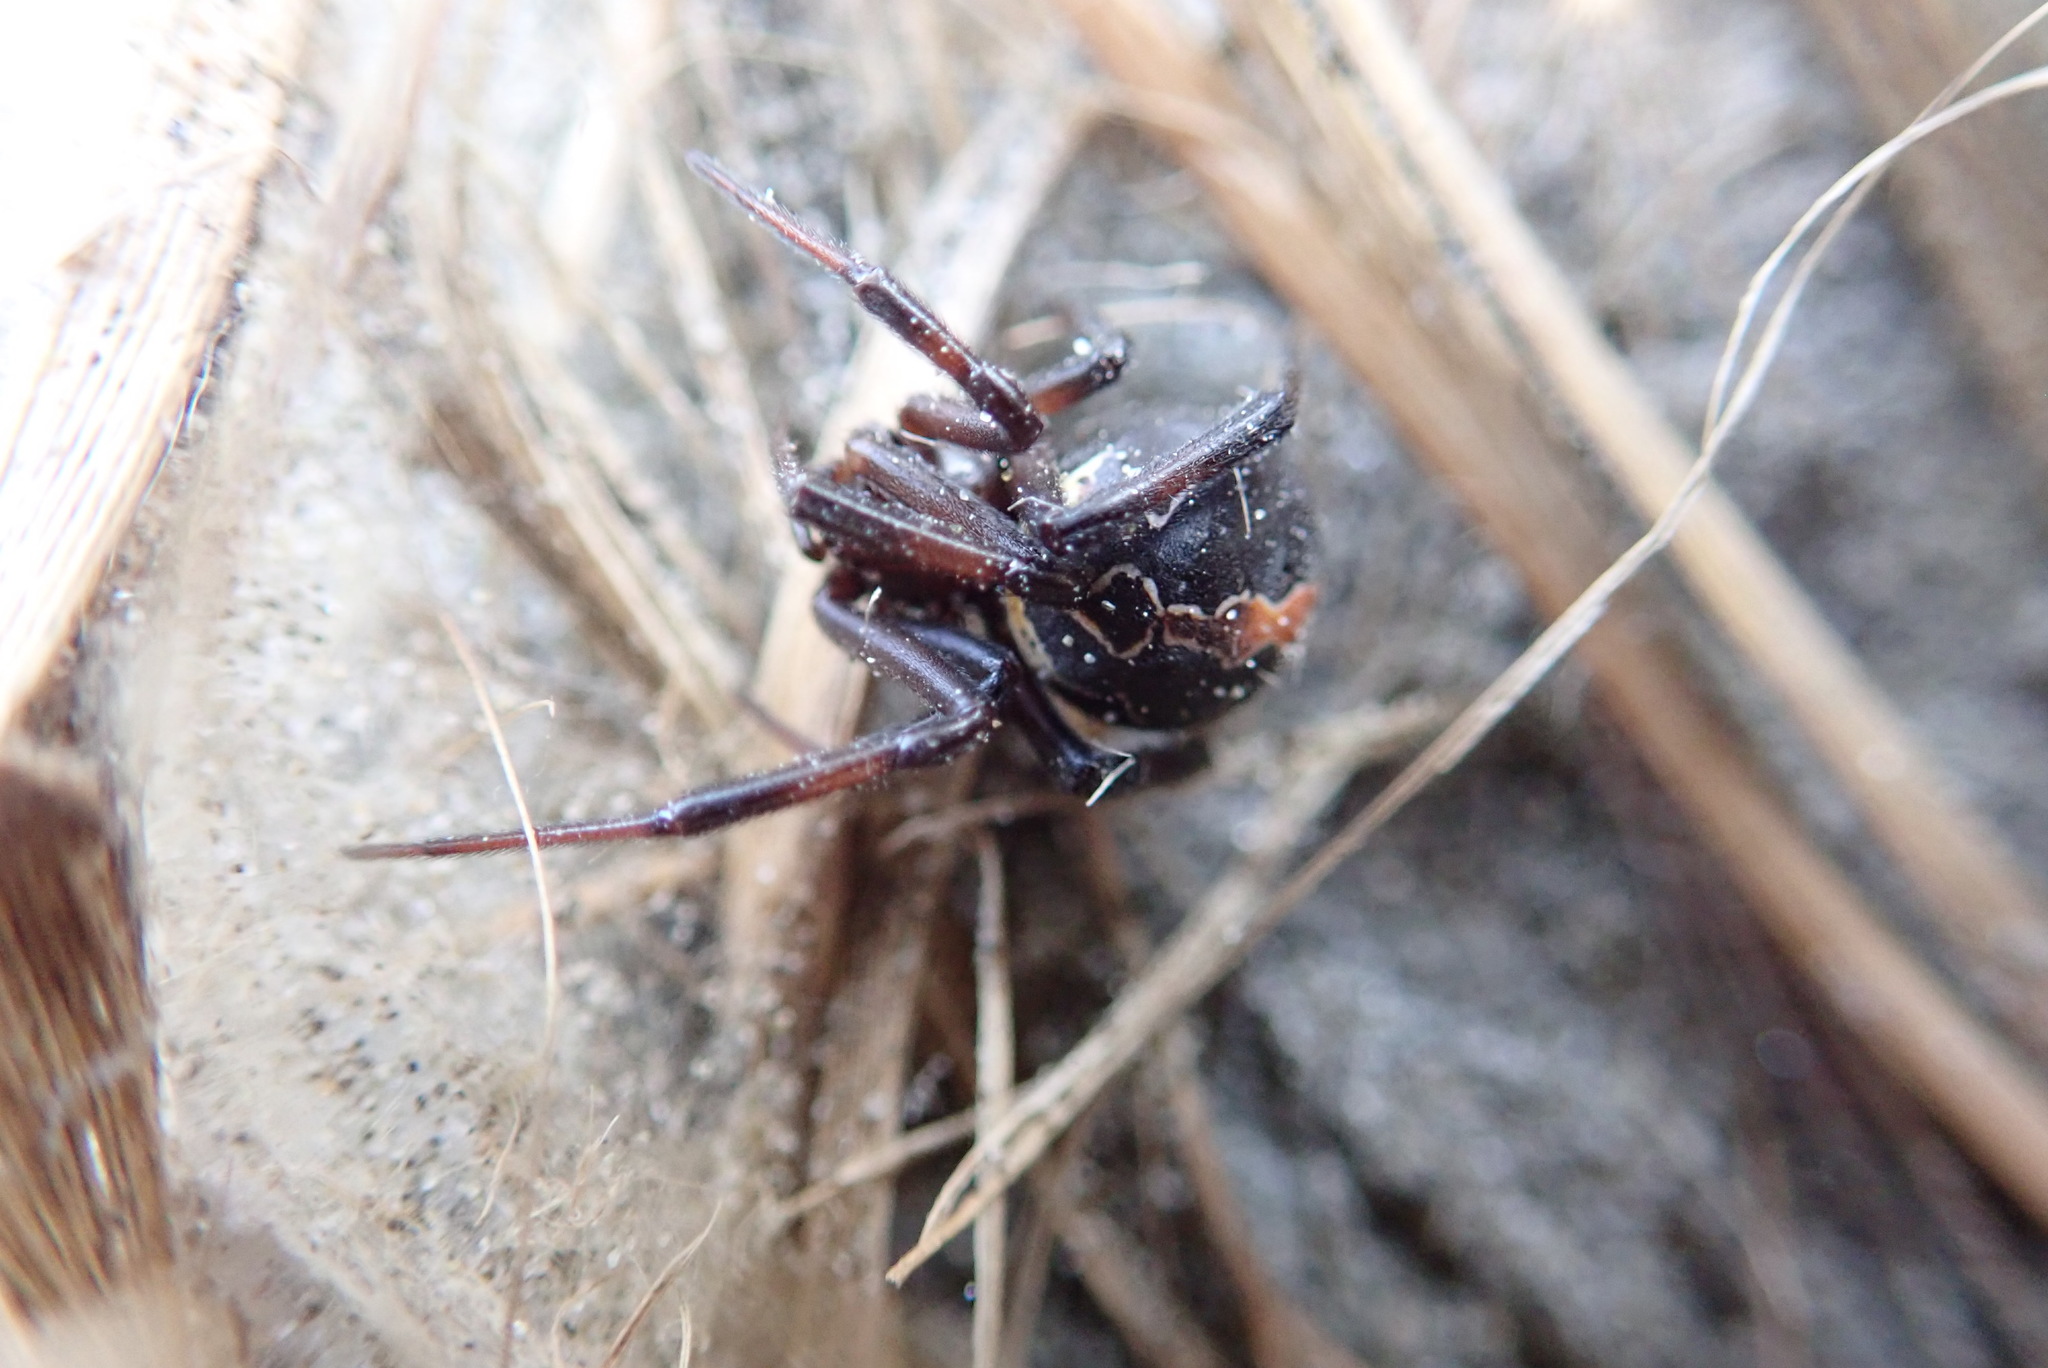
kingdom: Animalia
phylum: Arthropoda
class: Arachnida
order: Araneae
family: Theridiidae
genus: Latrodectus
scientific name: Latrodectus katipo
